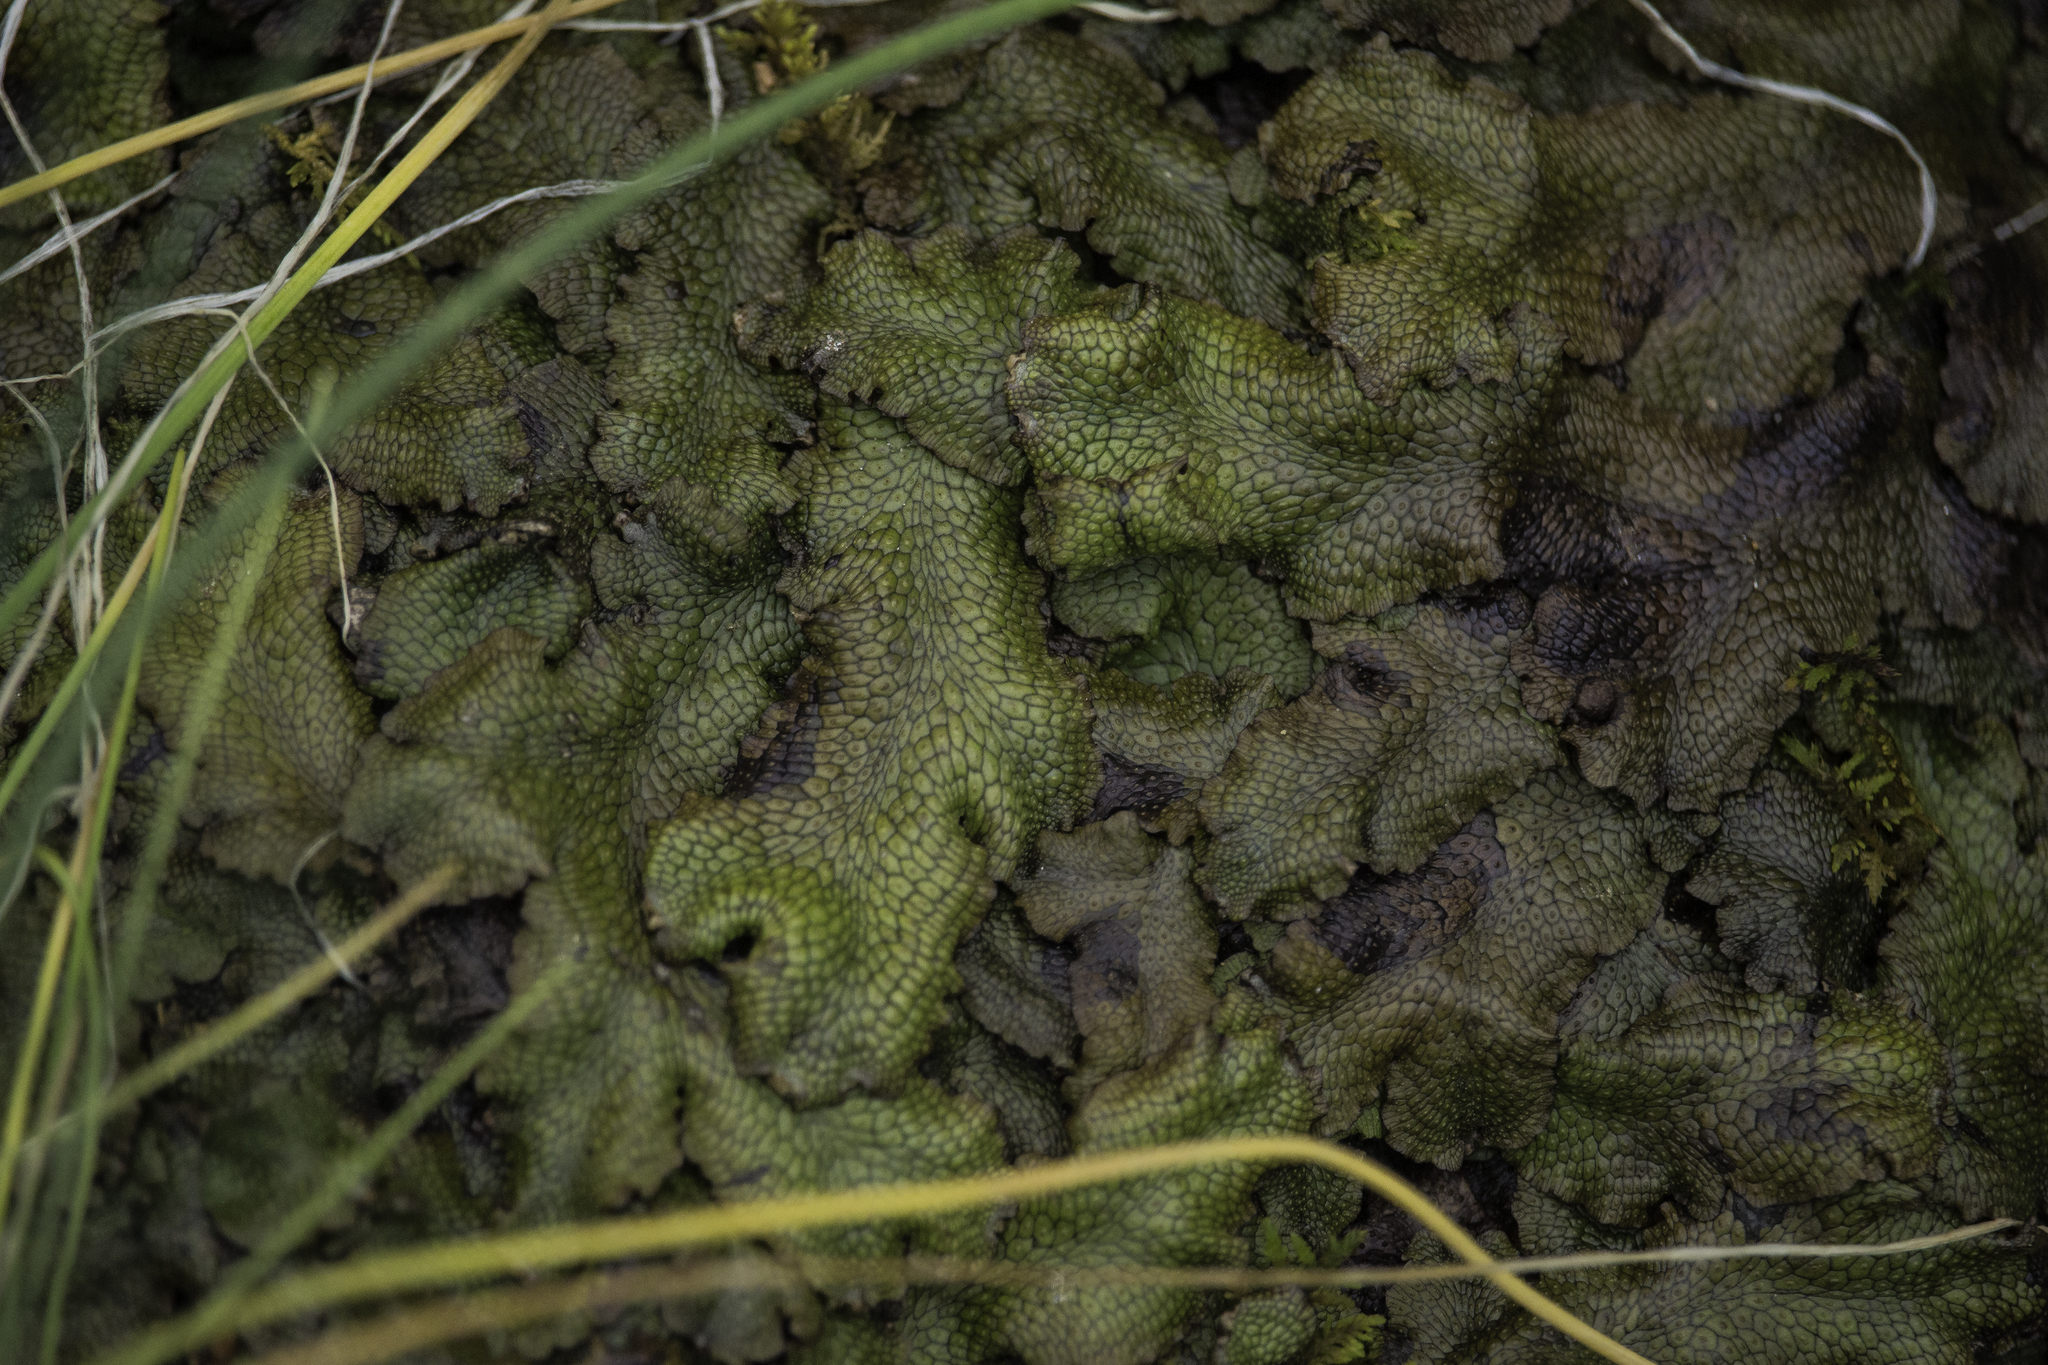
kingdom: Plantae
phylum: Marchantiophyta
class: Marchantiopsida
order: Marchantiales
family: Conocephalaceae
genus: Conocephalum
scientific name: Conocephalum salebrosum
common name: Cat-tongue liverwort
